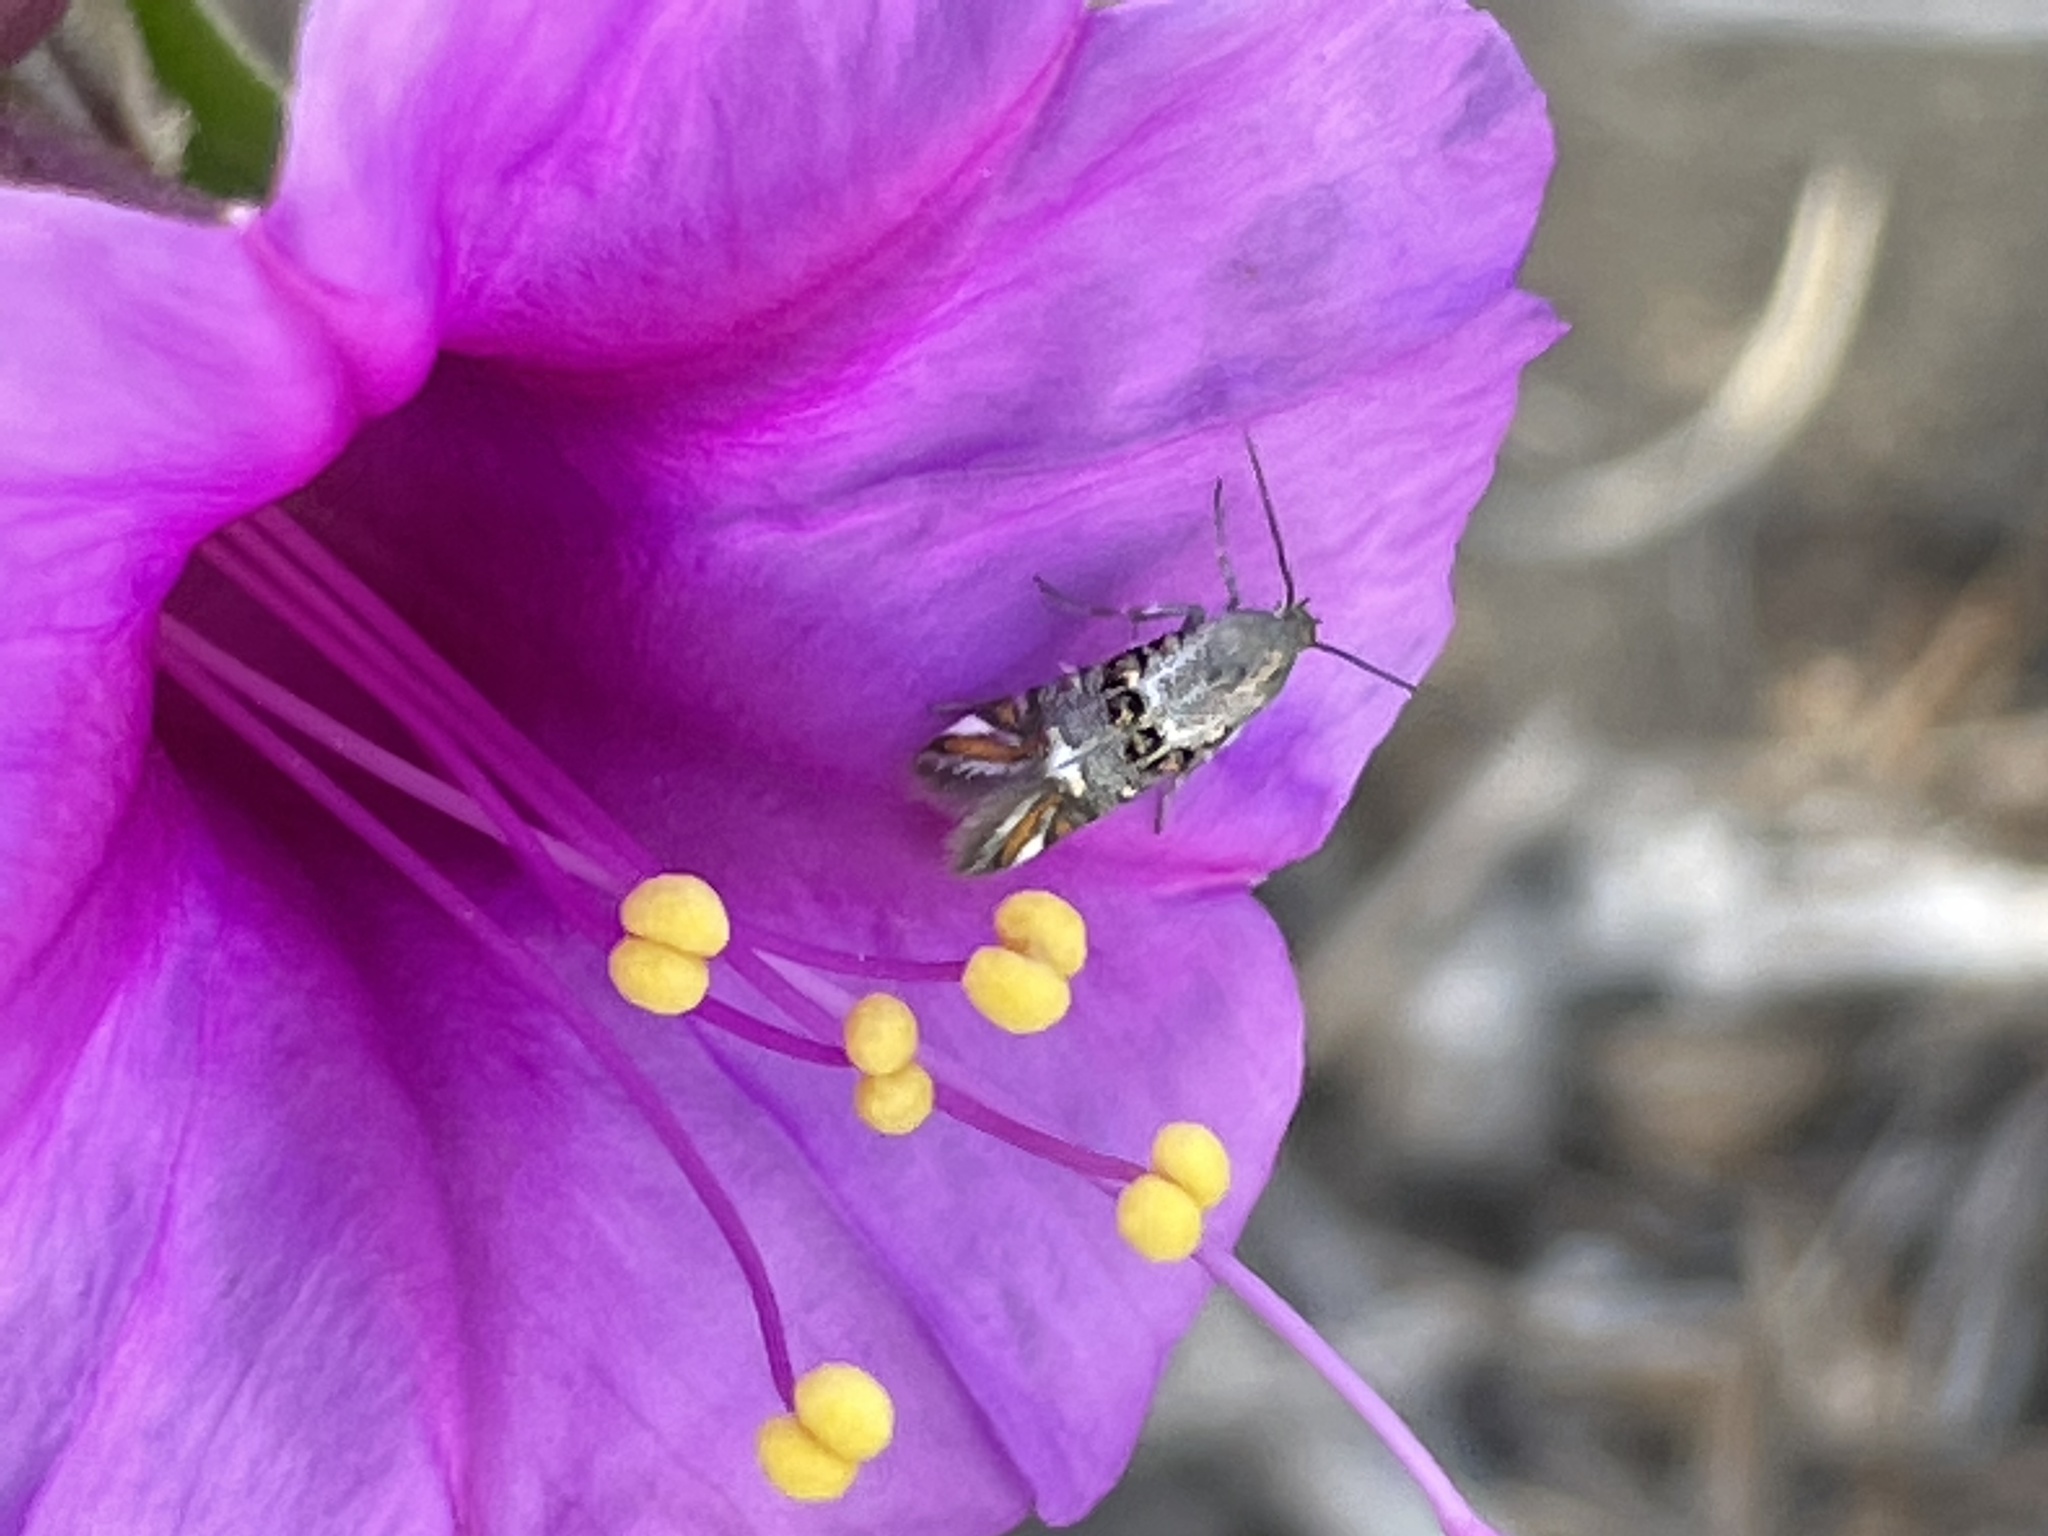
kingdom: Animalia
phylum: Arthropoda
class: Insecta
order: Lepidoptera
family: Heliodinidae
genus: Lithariapteryx
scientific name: Lithariapteryx abroniaeella
